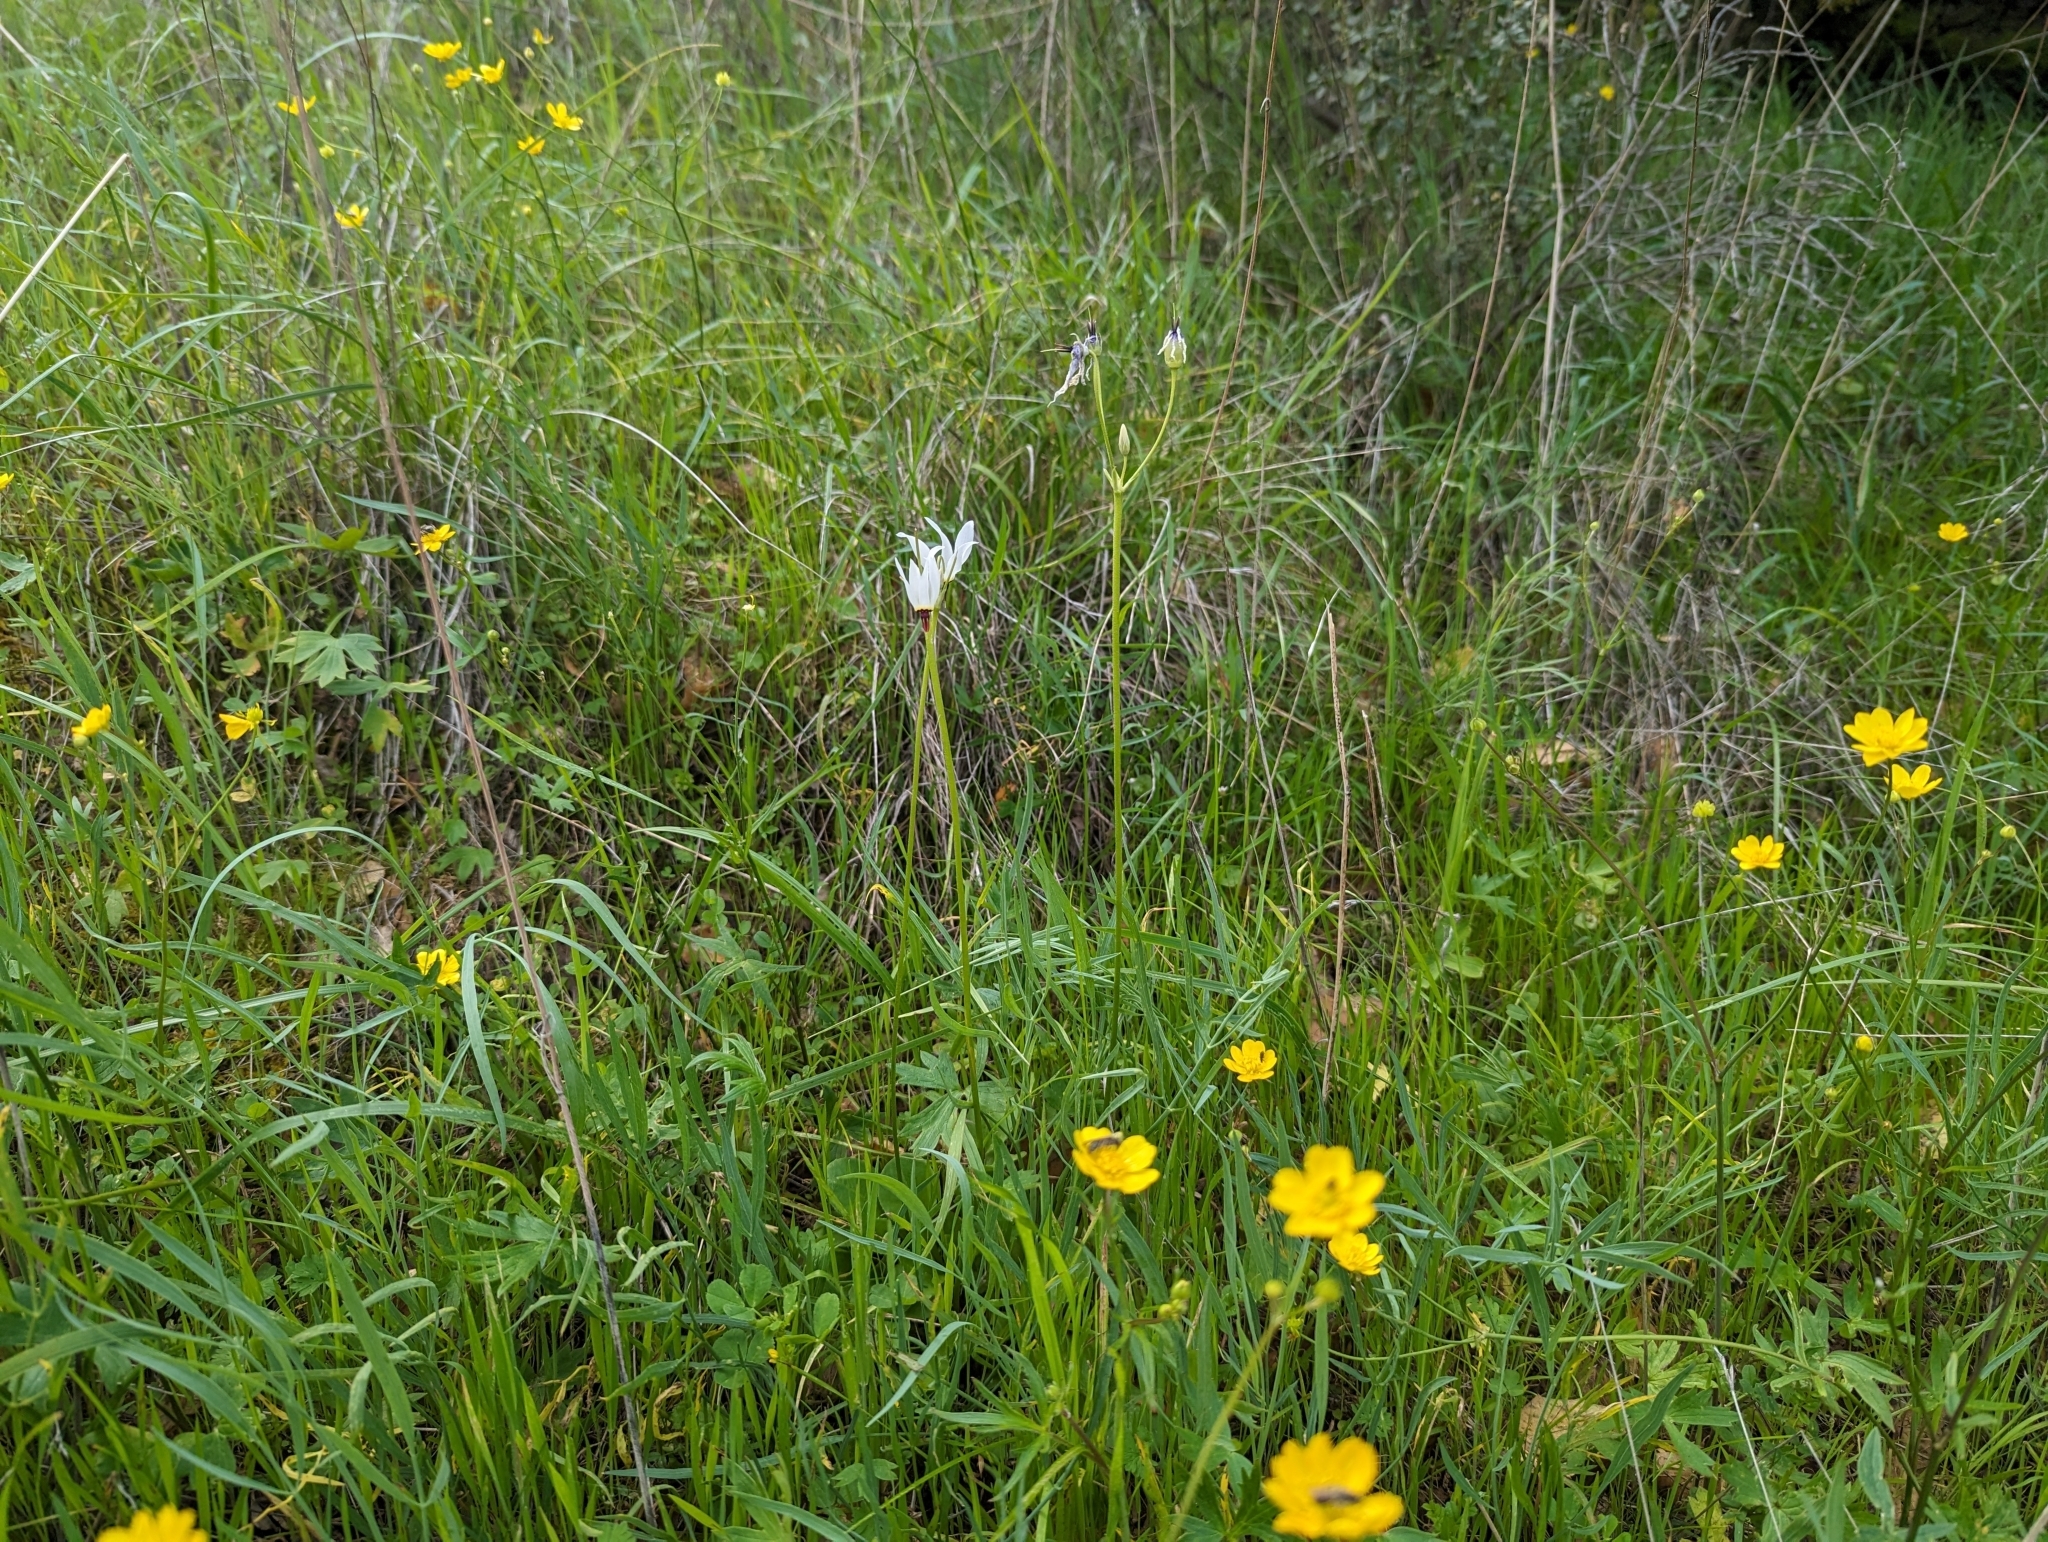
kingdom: Plantae
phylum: Tracheophyta
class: Magnoliopsida
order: Ericales
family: Primulaceae
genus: Dodecatheon
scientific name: Dodecatheon hendersonii
